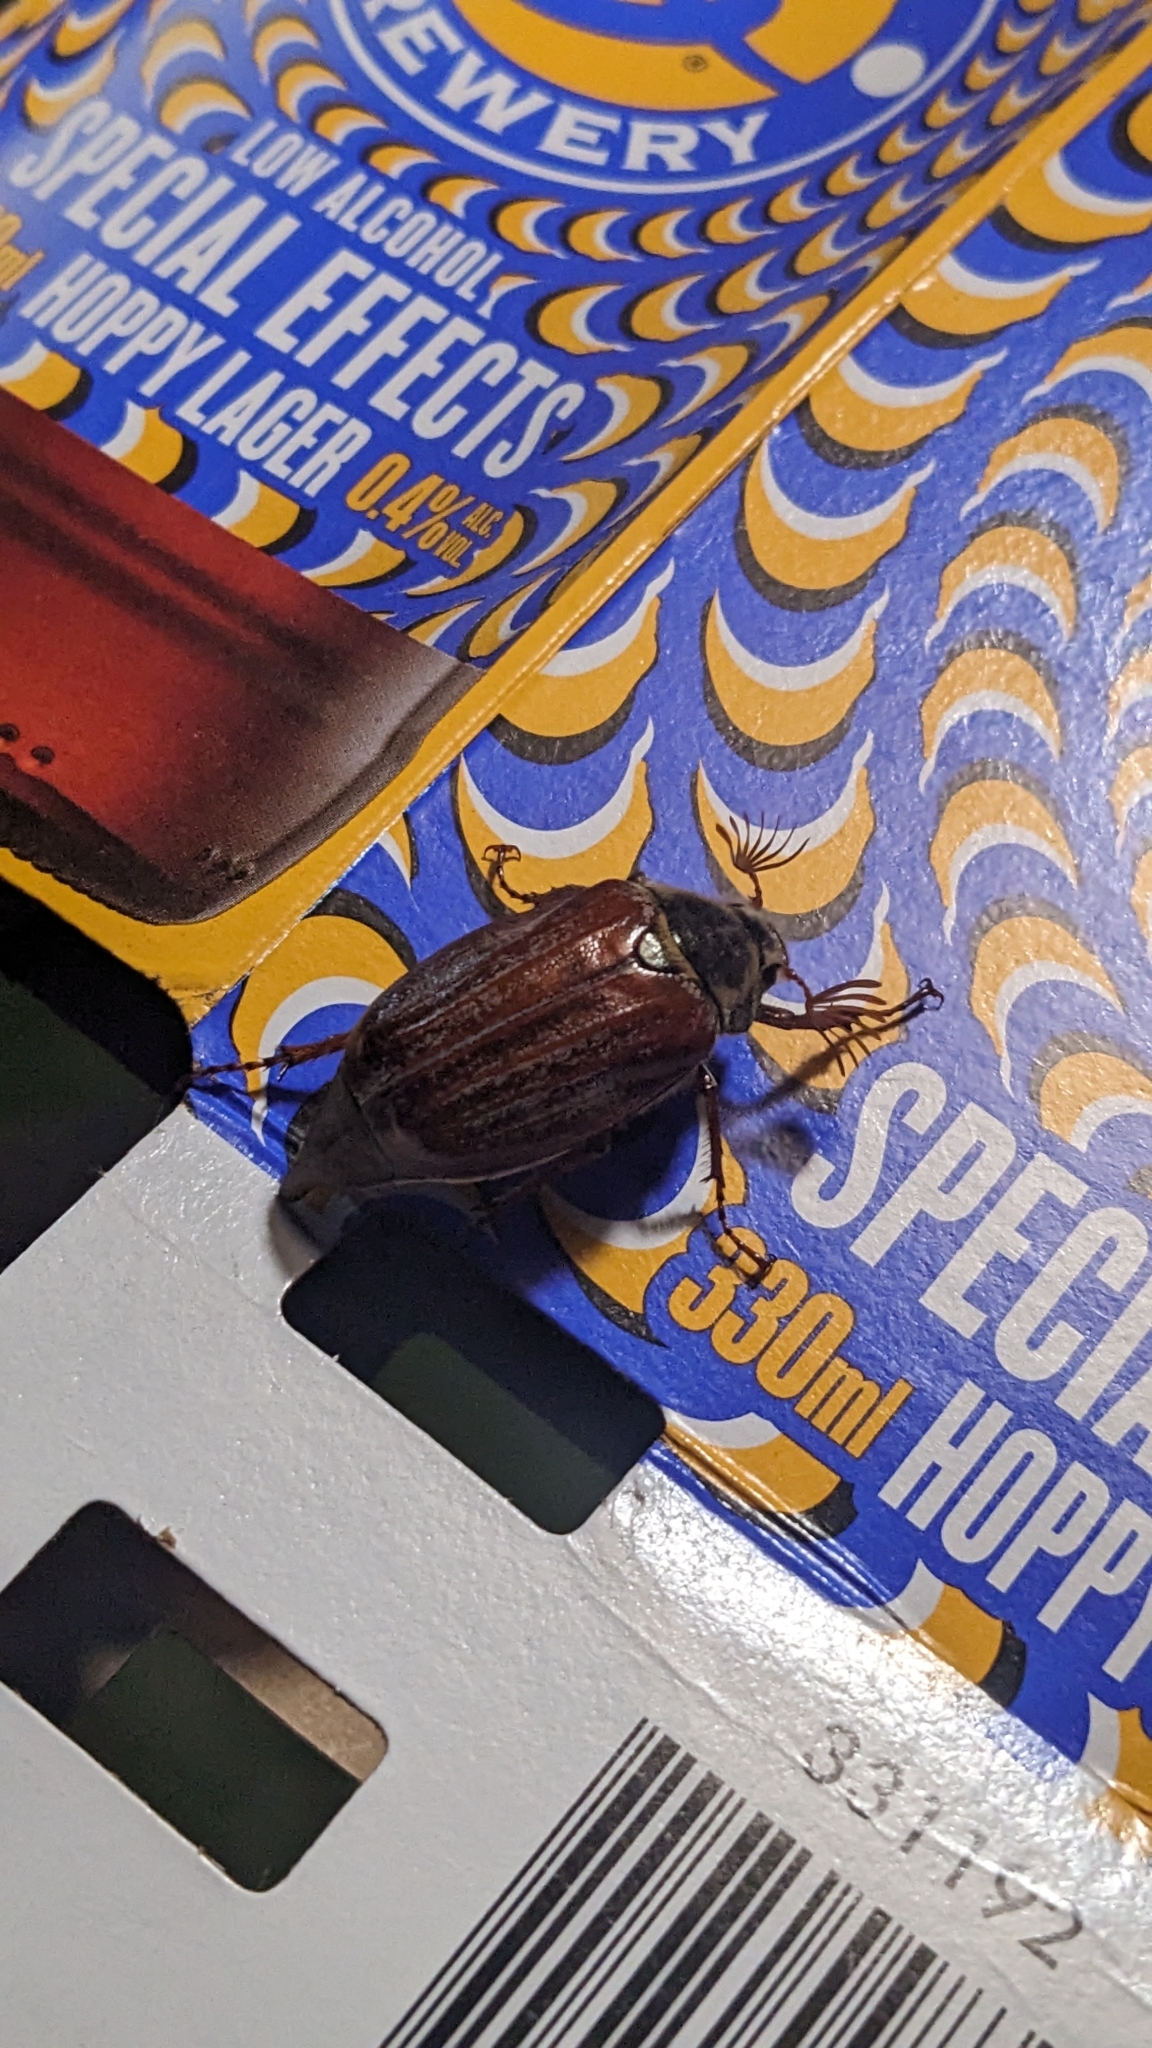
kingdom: Animalia
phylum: Arthropoda
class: Insecta
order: Coleoptera
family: Scarabaeidae
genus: Melolontha
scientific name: Melolontha melolontha
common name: Cockchafer maybeetle
